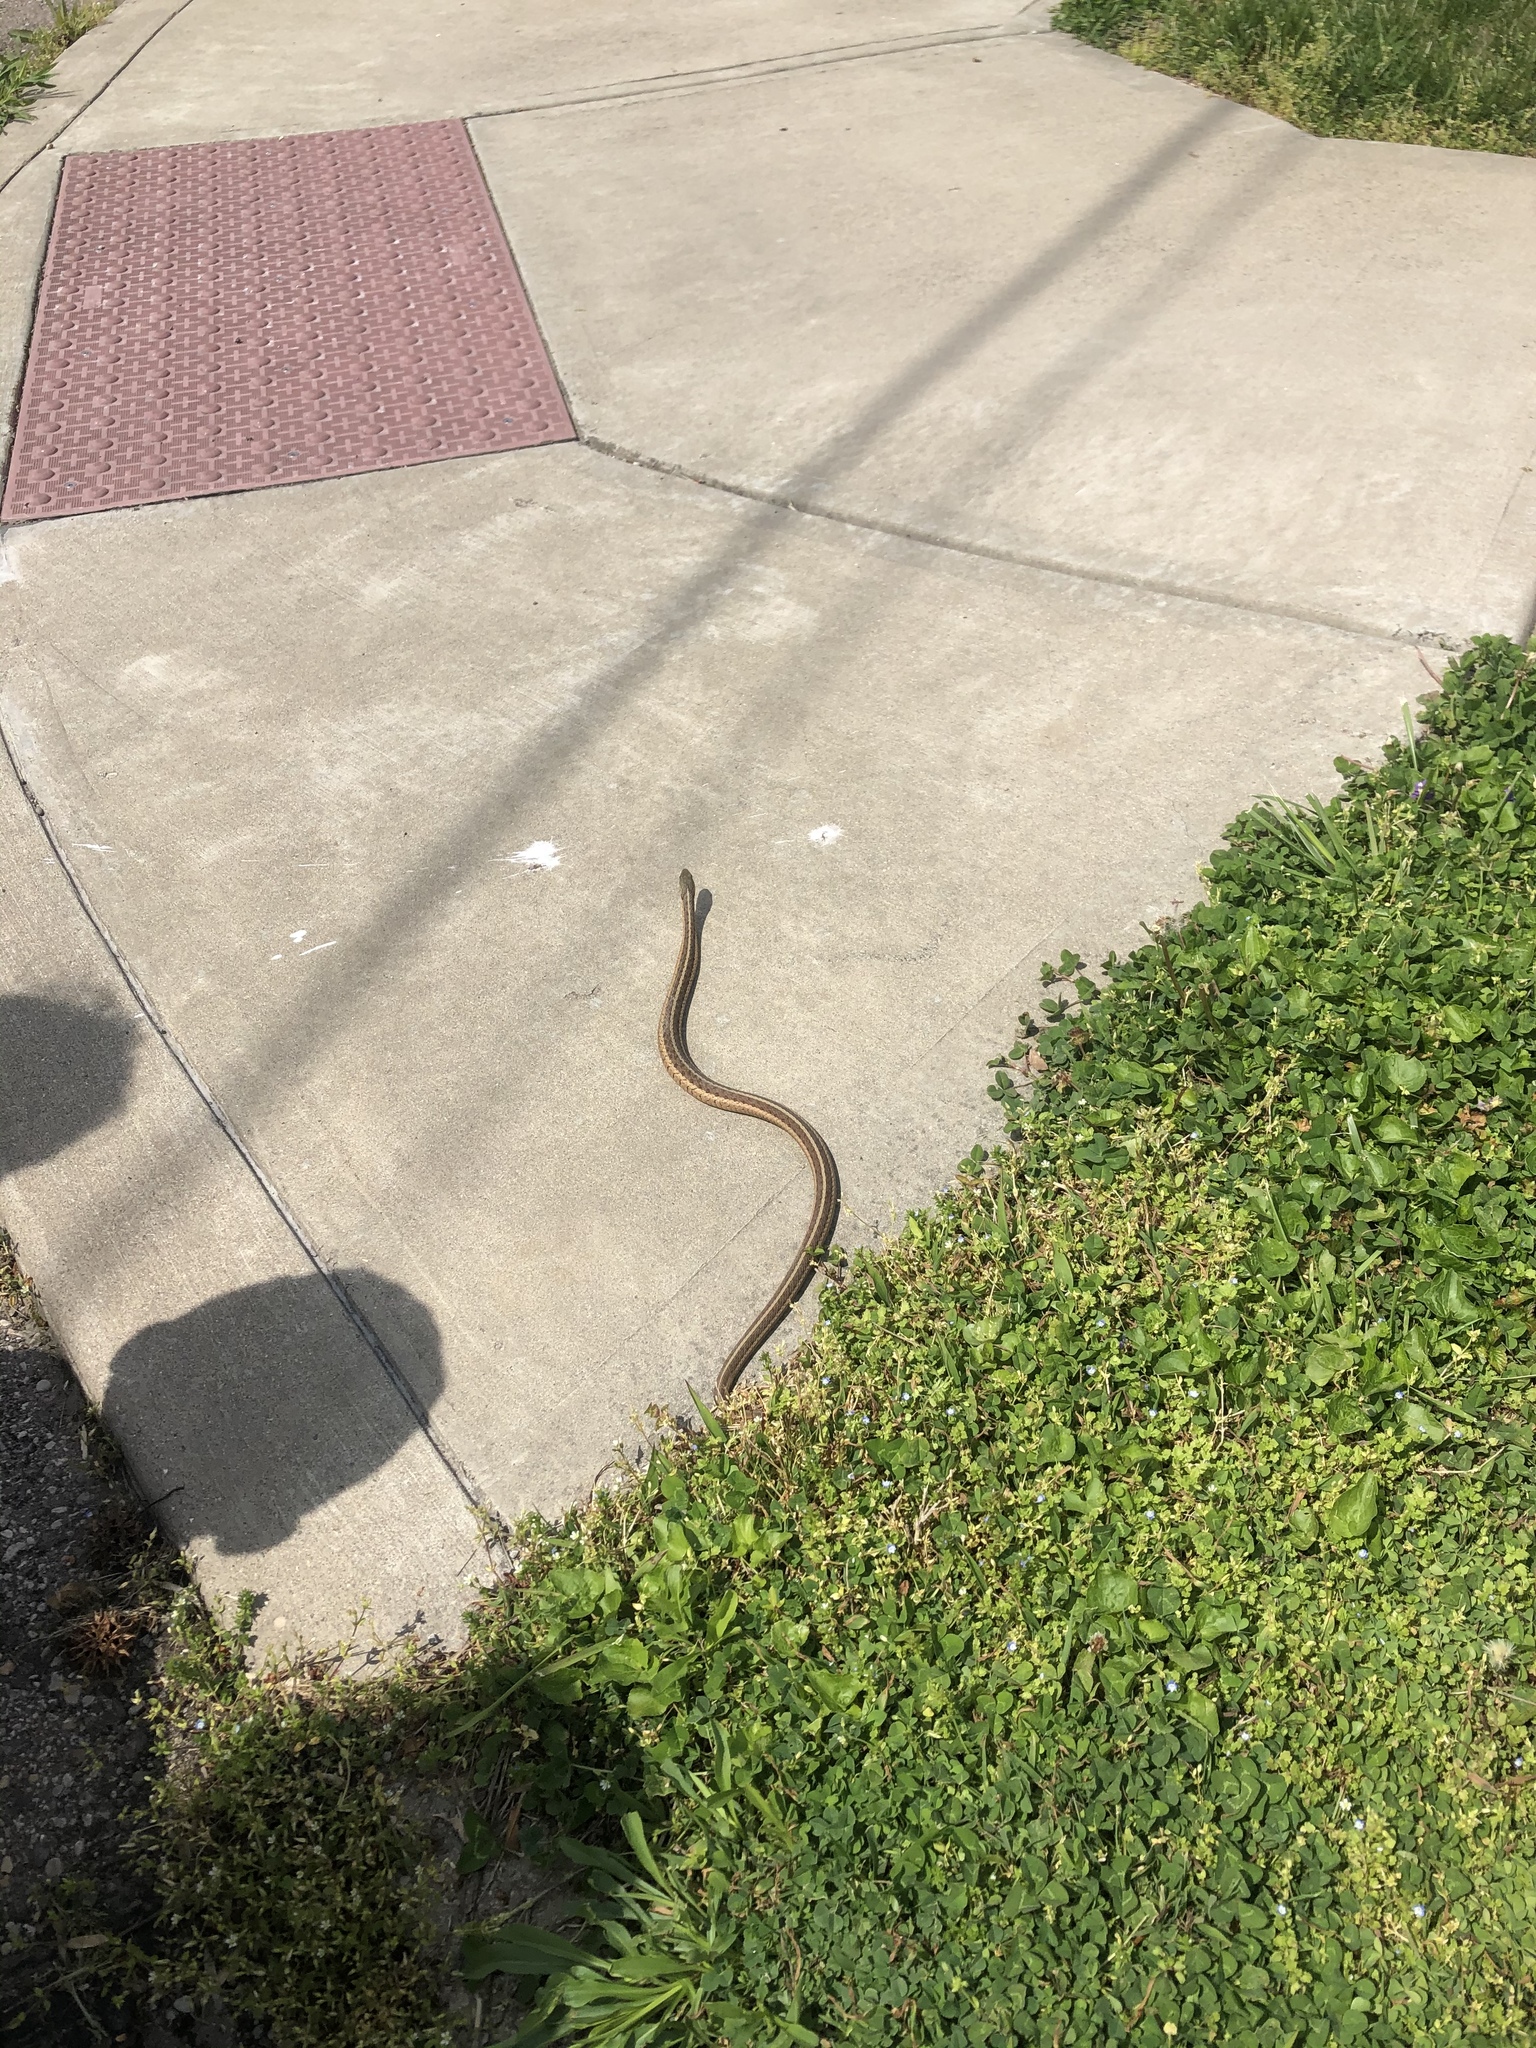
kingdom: Animalia
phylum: Chordata
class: Squamata
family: Colubridae
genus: Thamnophis
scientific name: Thamnophis sirtalis
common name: Common garter snake
